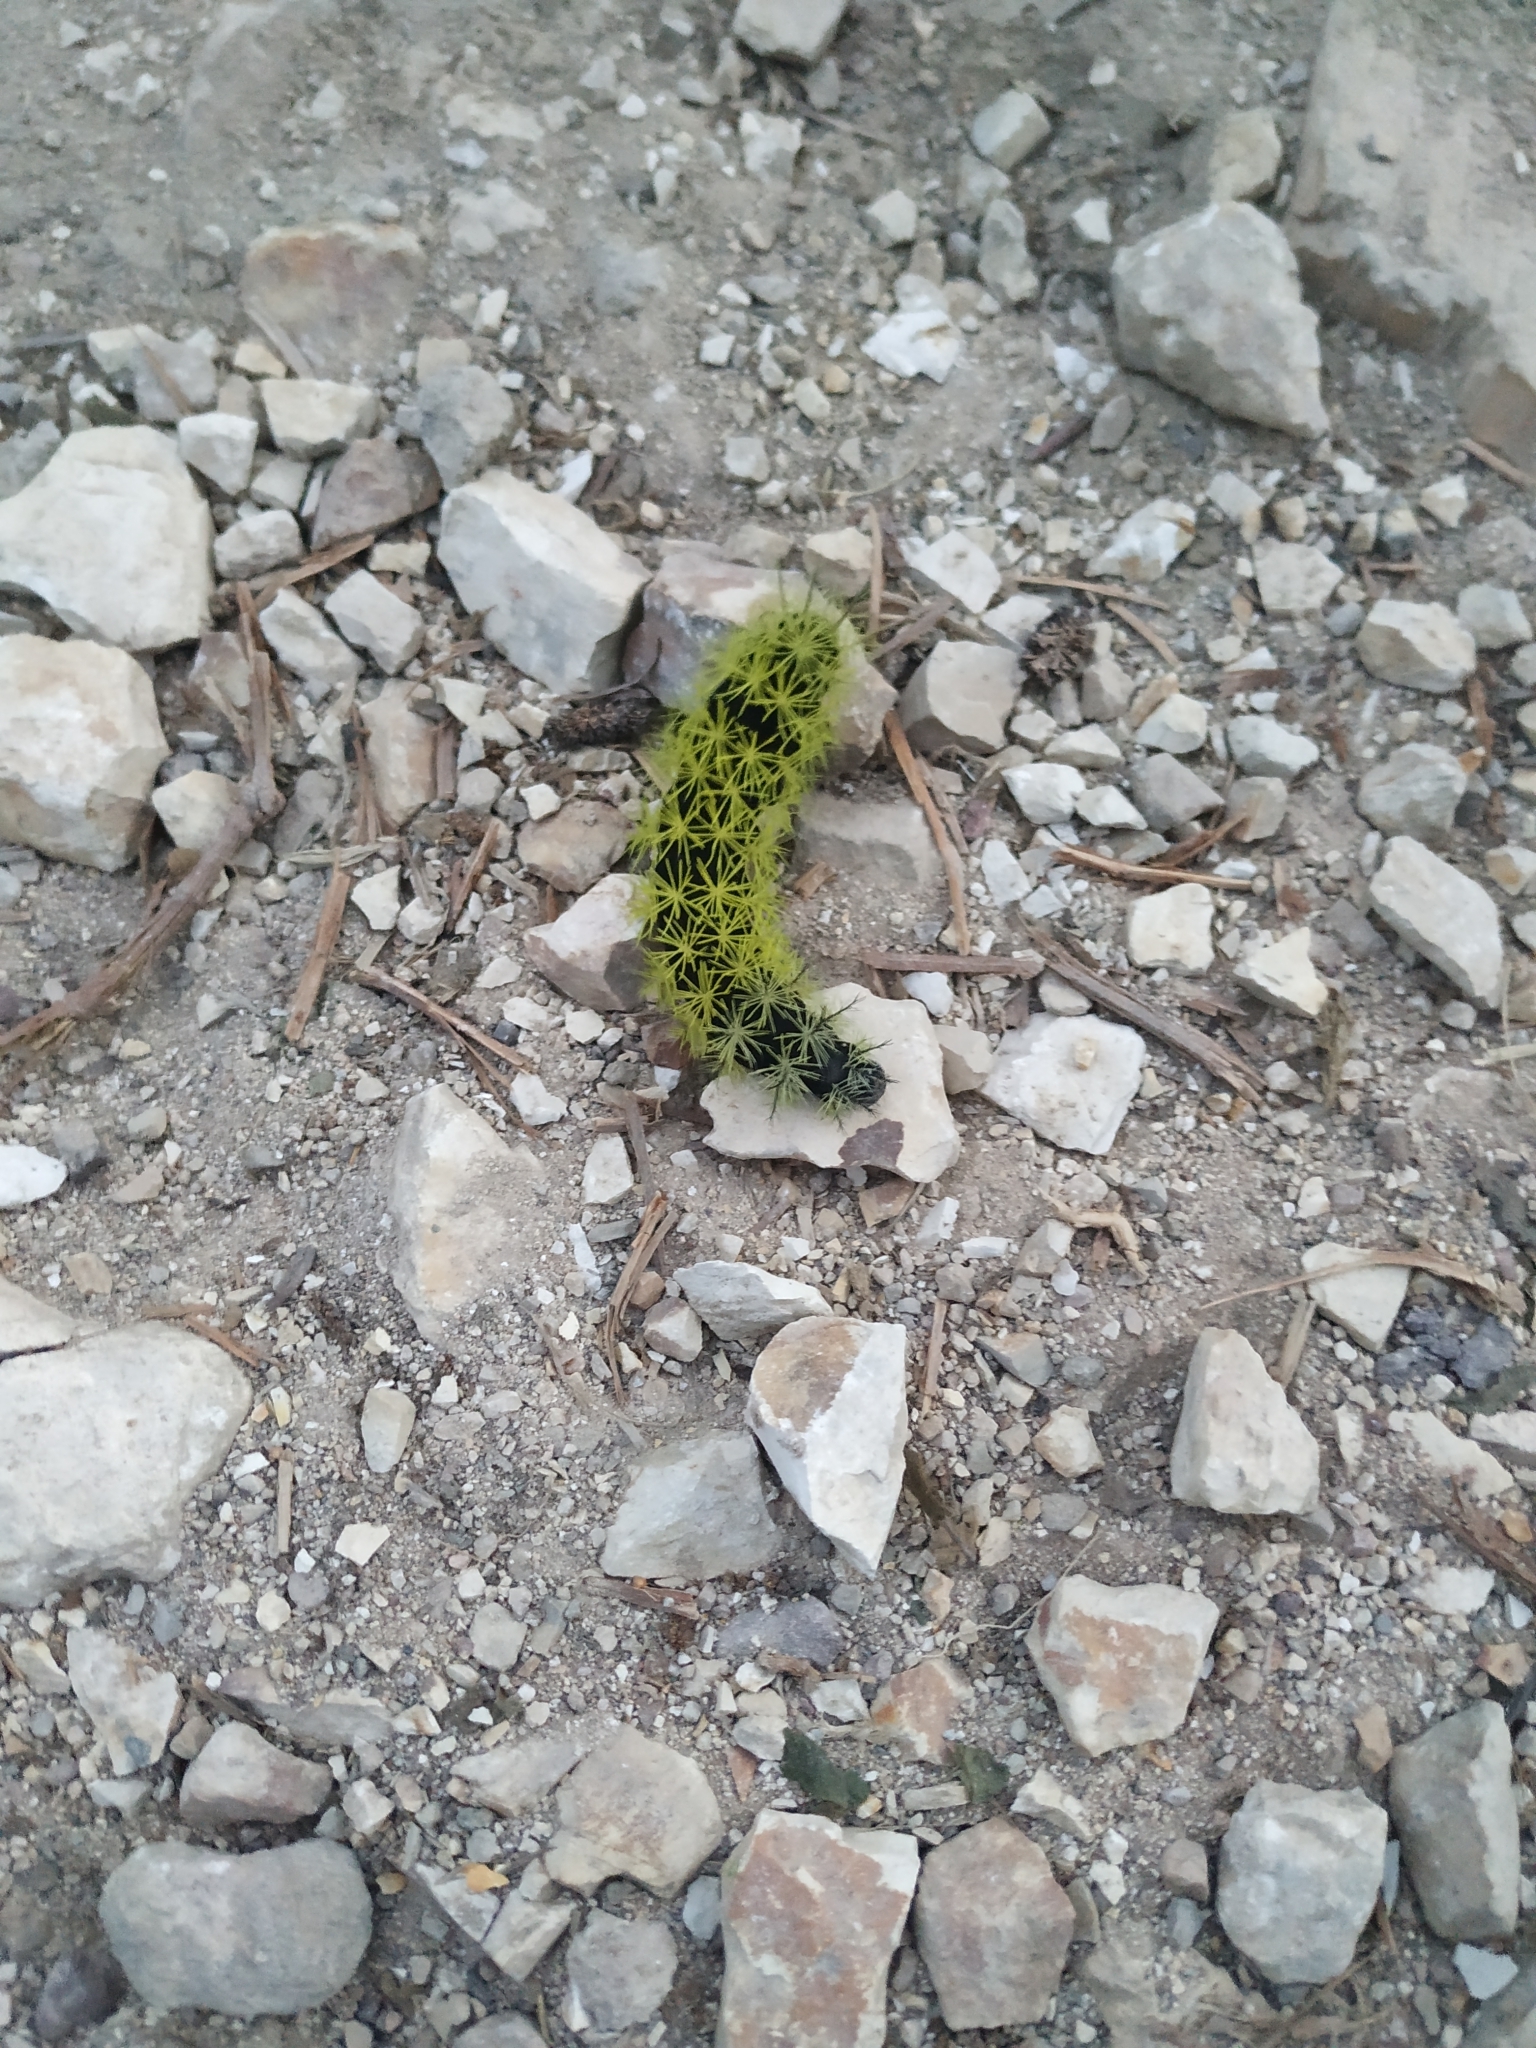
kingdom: Animalia
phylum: Arthropoda
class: Insecta
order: Lepidoptera
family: Saturniidae
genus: Leucanella
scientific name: Leucanella nyctimene
